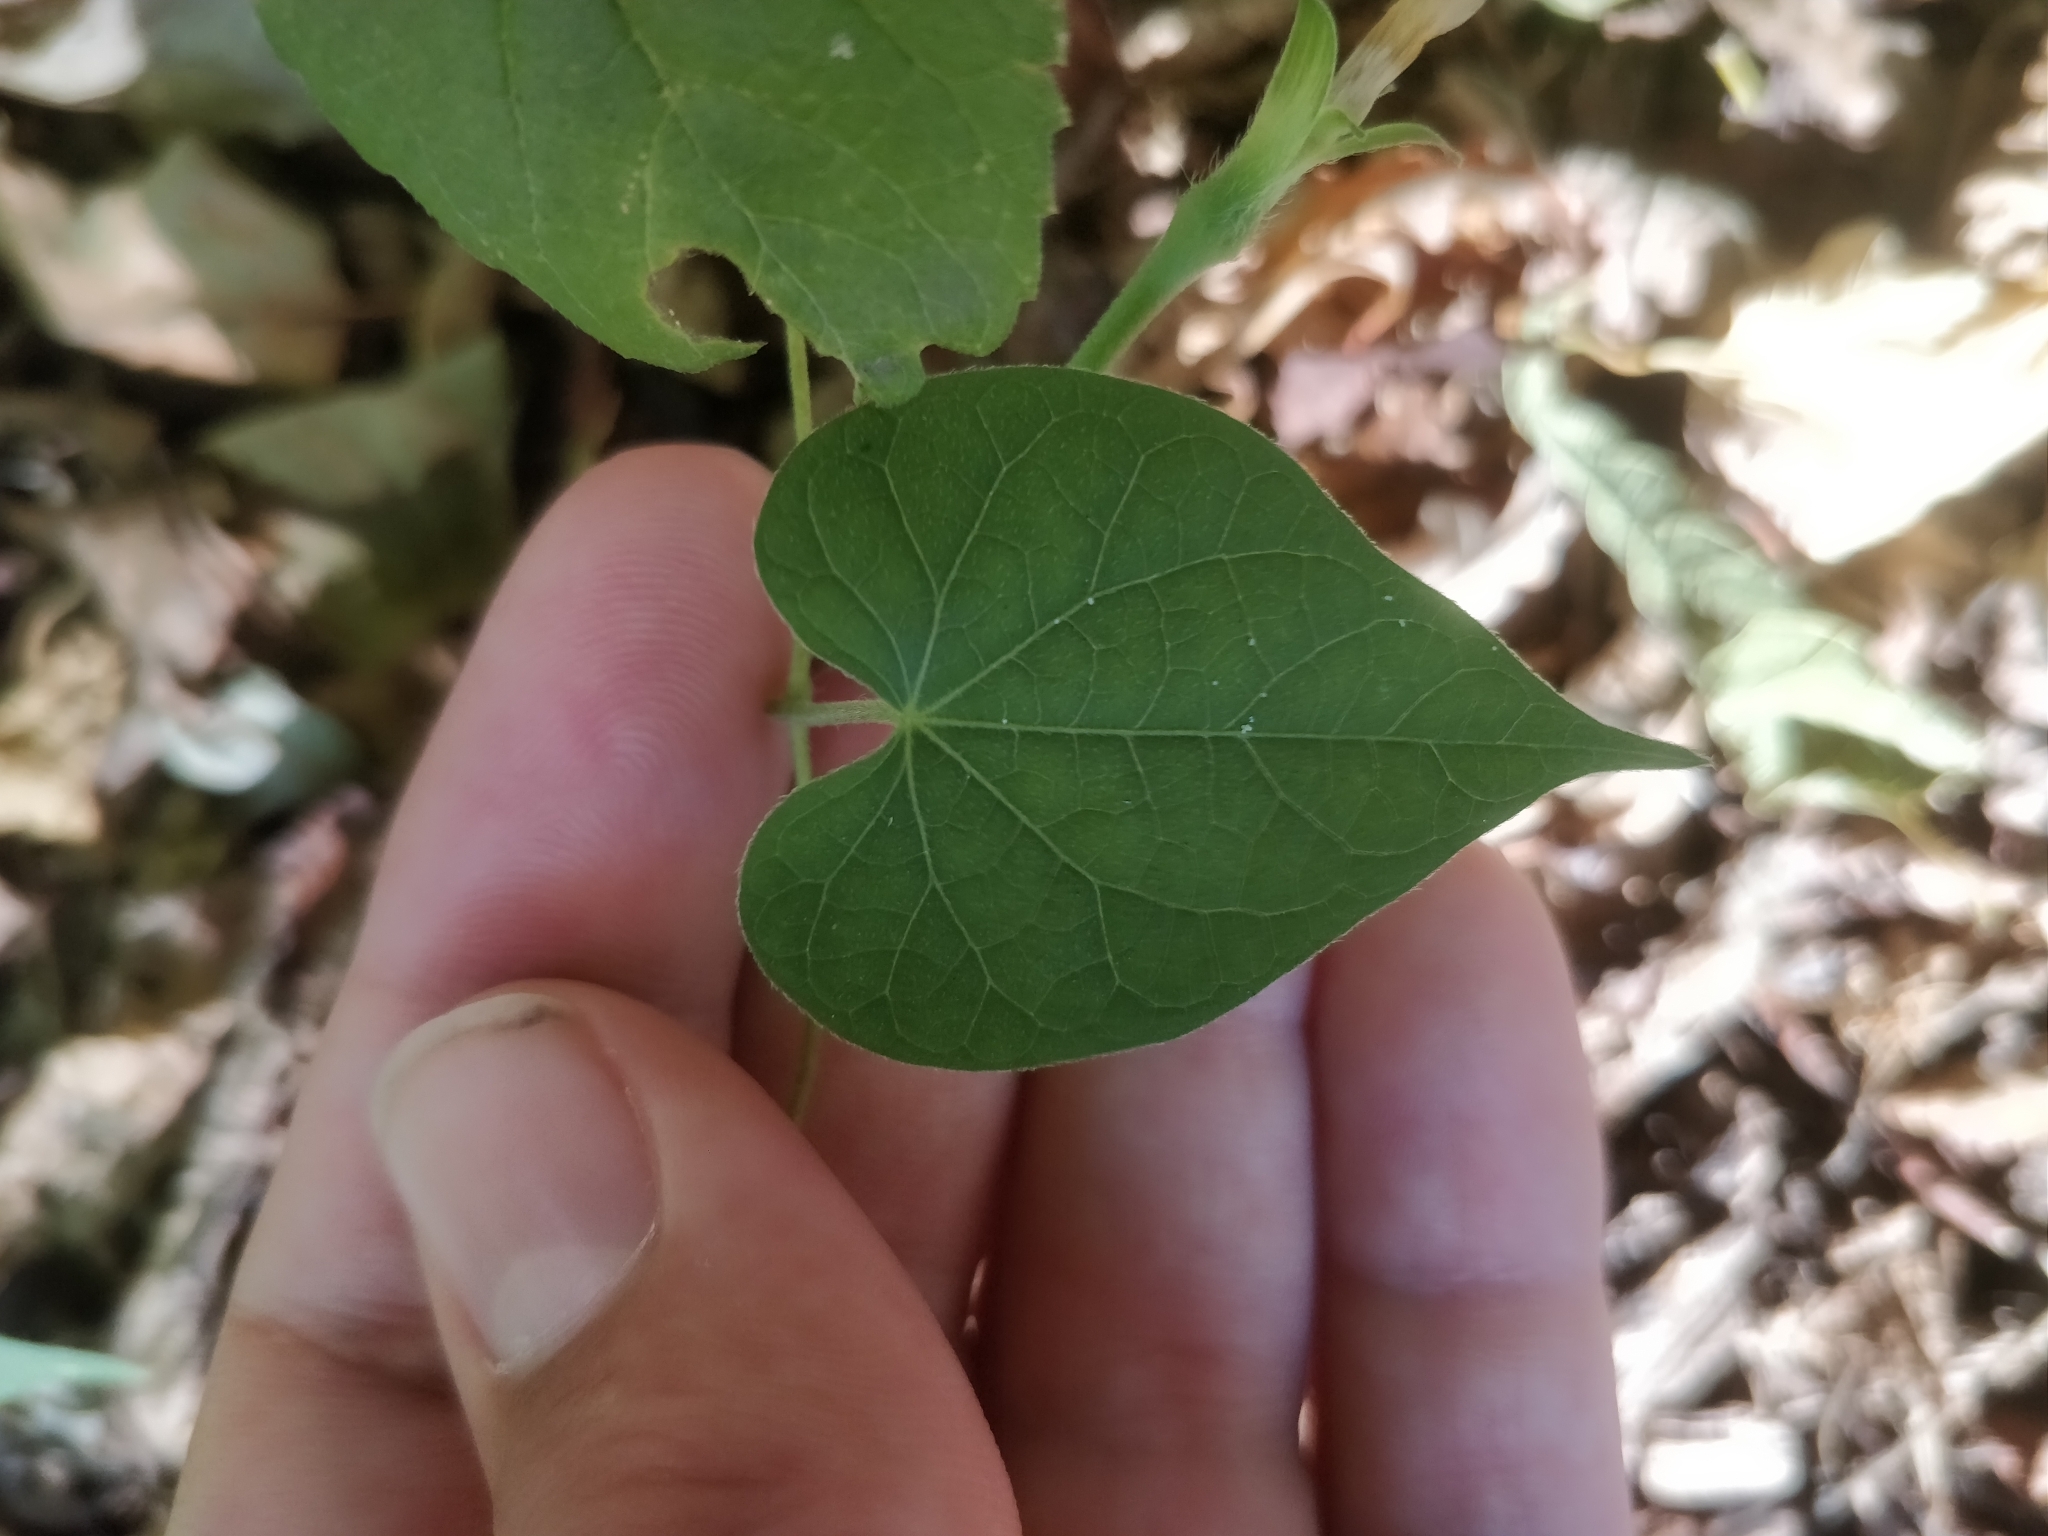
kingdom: Plantae
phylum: Tracheophyta
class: Magnoliopsida
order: Solanales
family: Convolvulaceae
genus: Ipomoea
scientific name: Ipomoea purpurea
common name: Common morning-glory
